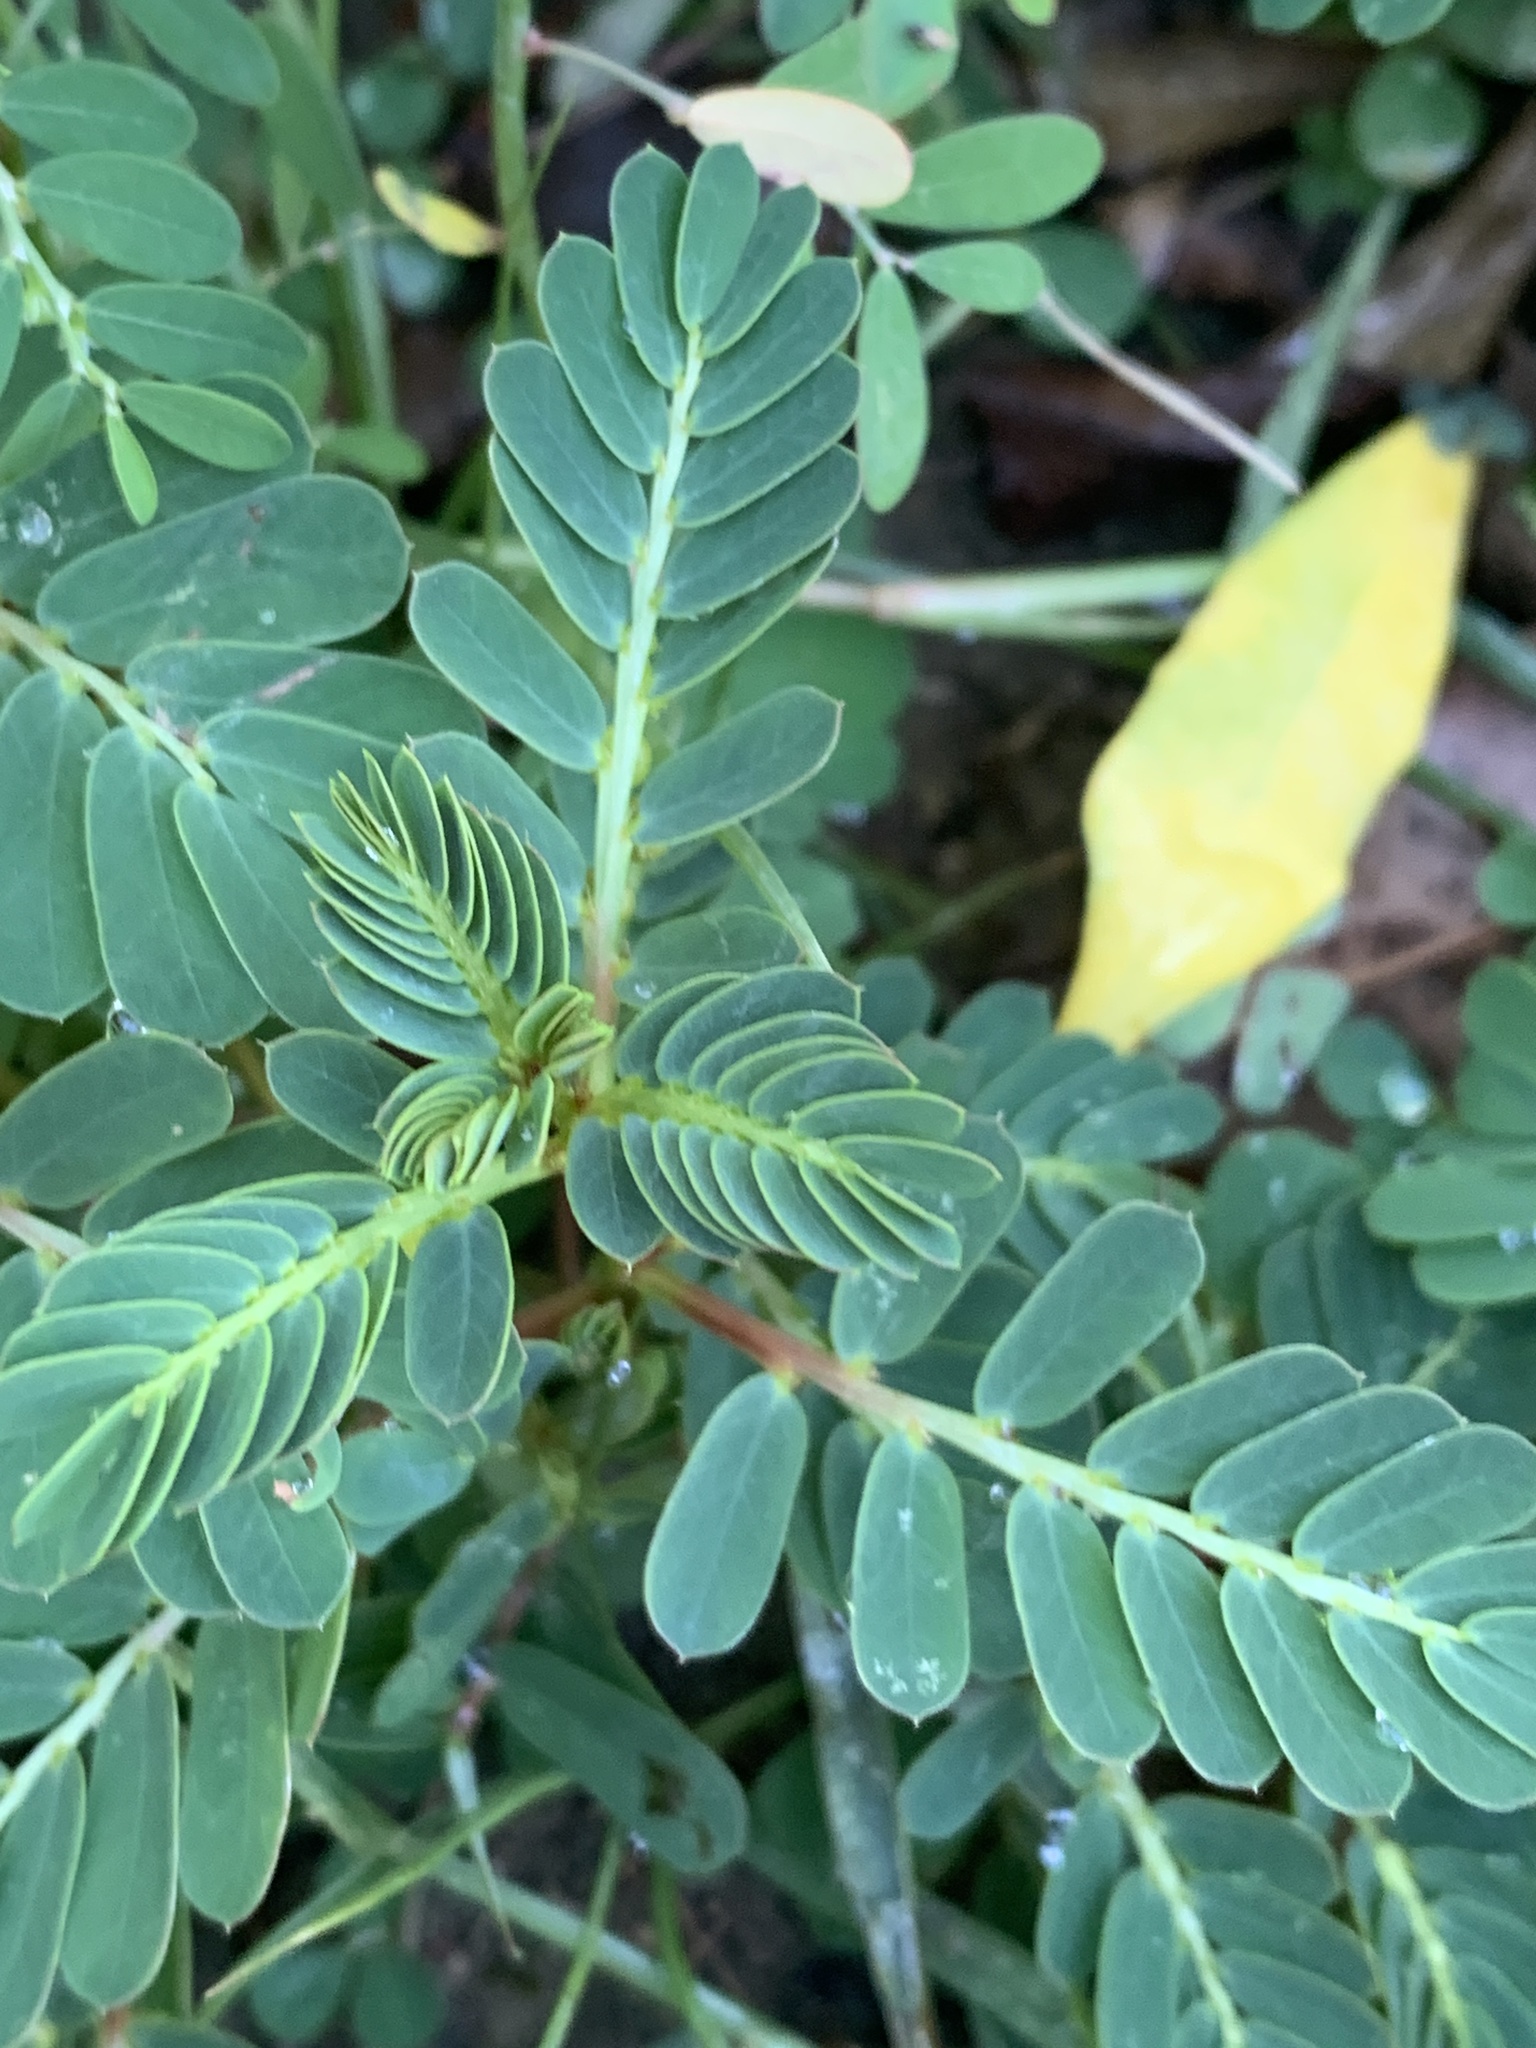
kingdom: Plantae
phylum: Tracheophyta
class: Magnoliopsida
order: Malpighiales
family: Phyllanthaceae
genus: Phyllanthus
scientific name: Phyllanthus urinaria
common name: Chamber bitter
